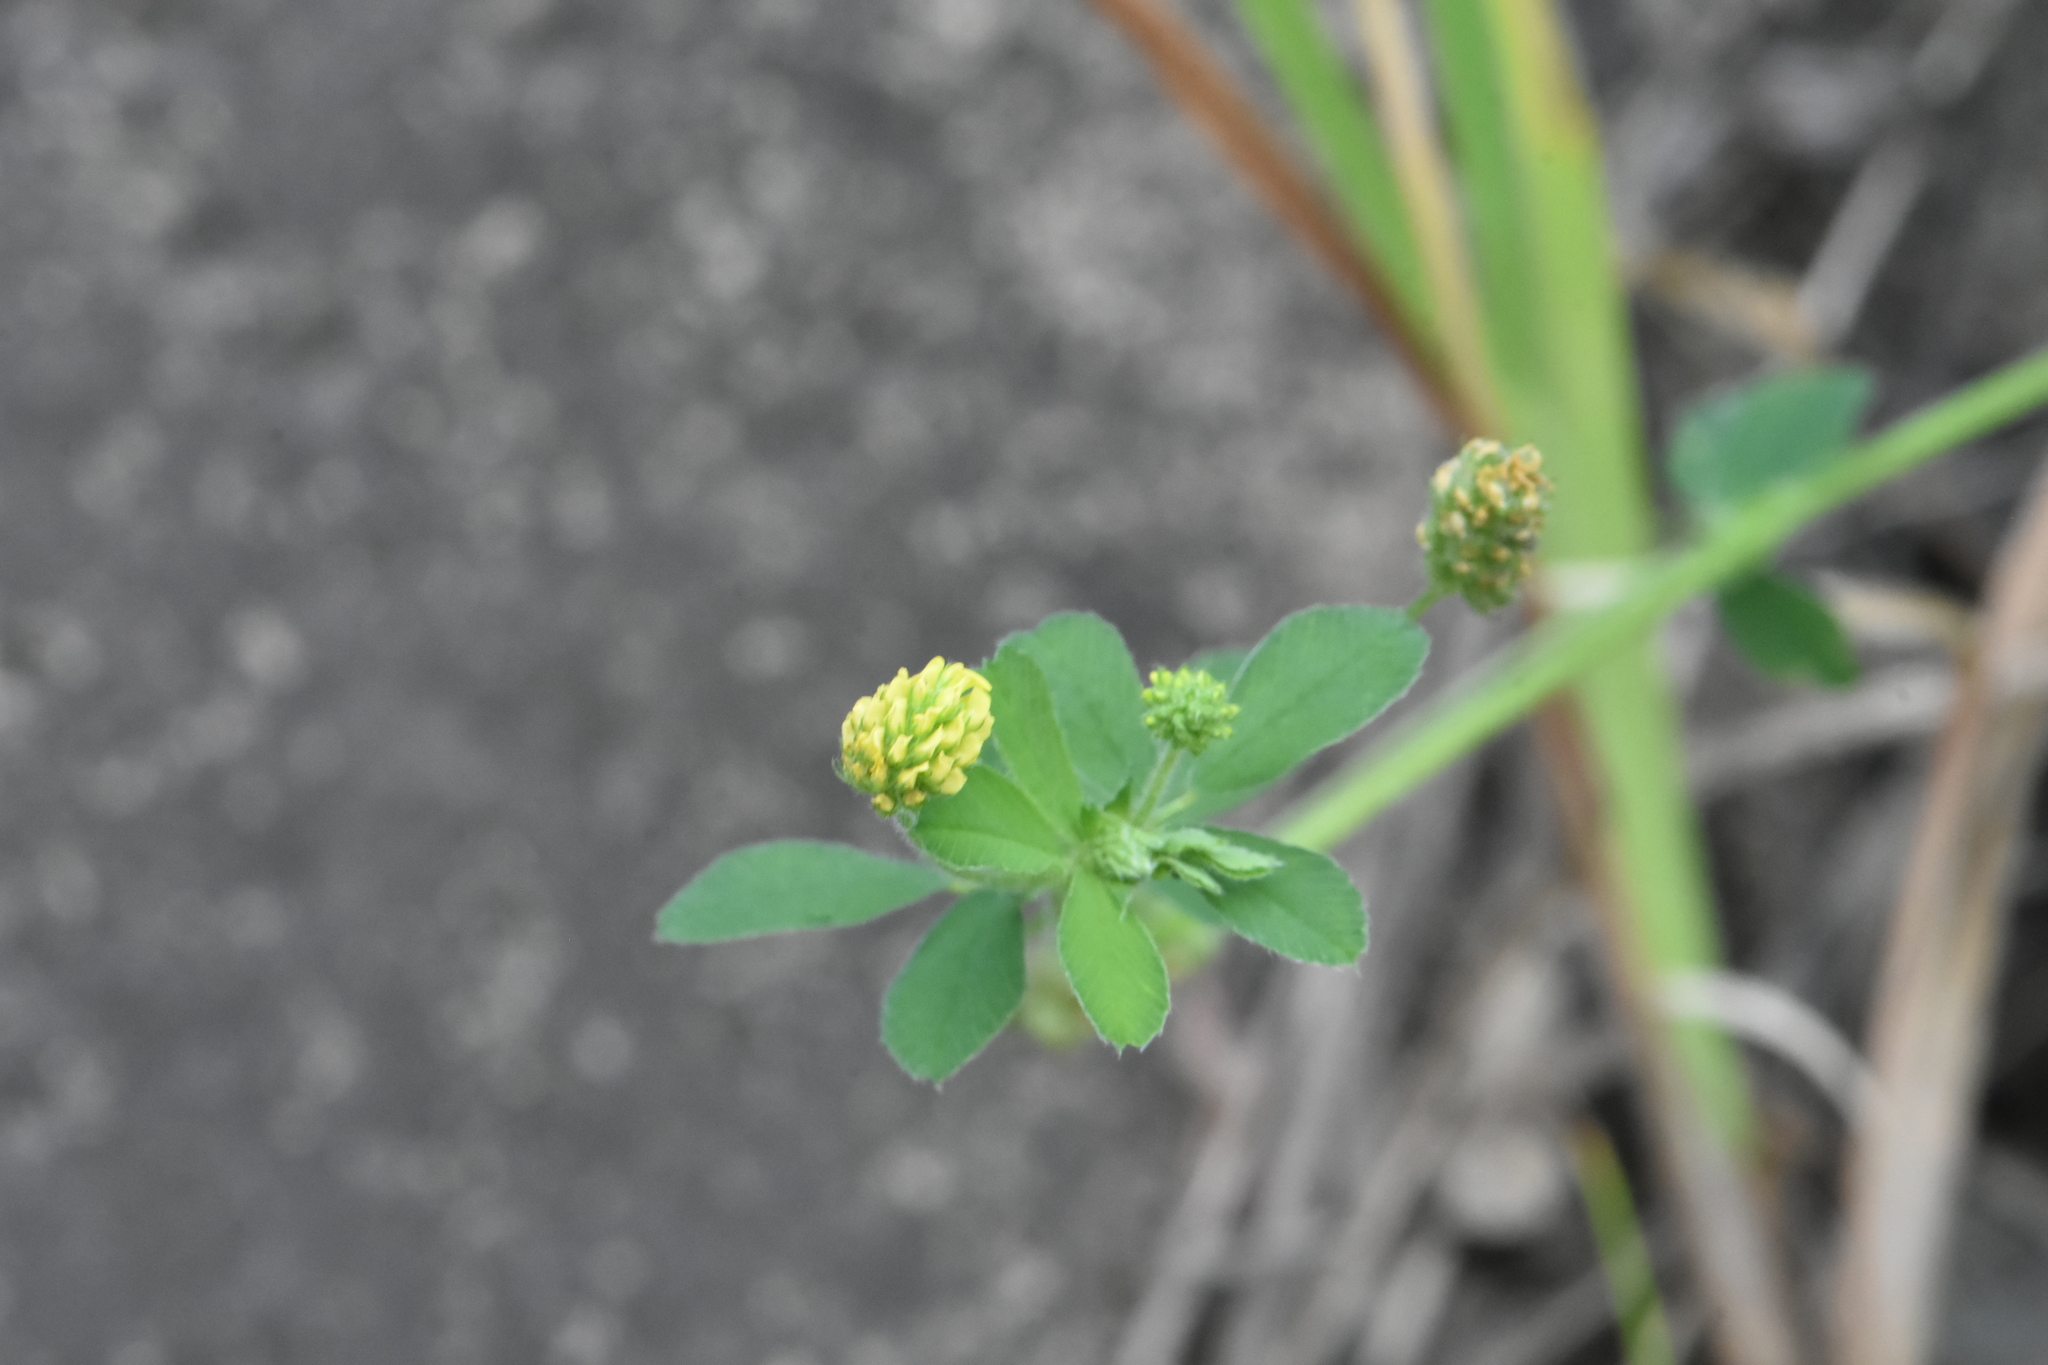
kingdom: Plantae
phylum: Tracheophyta
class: Magnoliopsida
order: Fabales
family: Fabaceae
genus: Medicago
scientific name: Medicago lupulina
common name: Black medick
